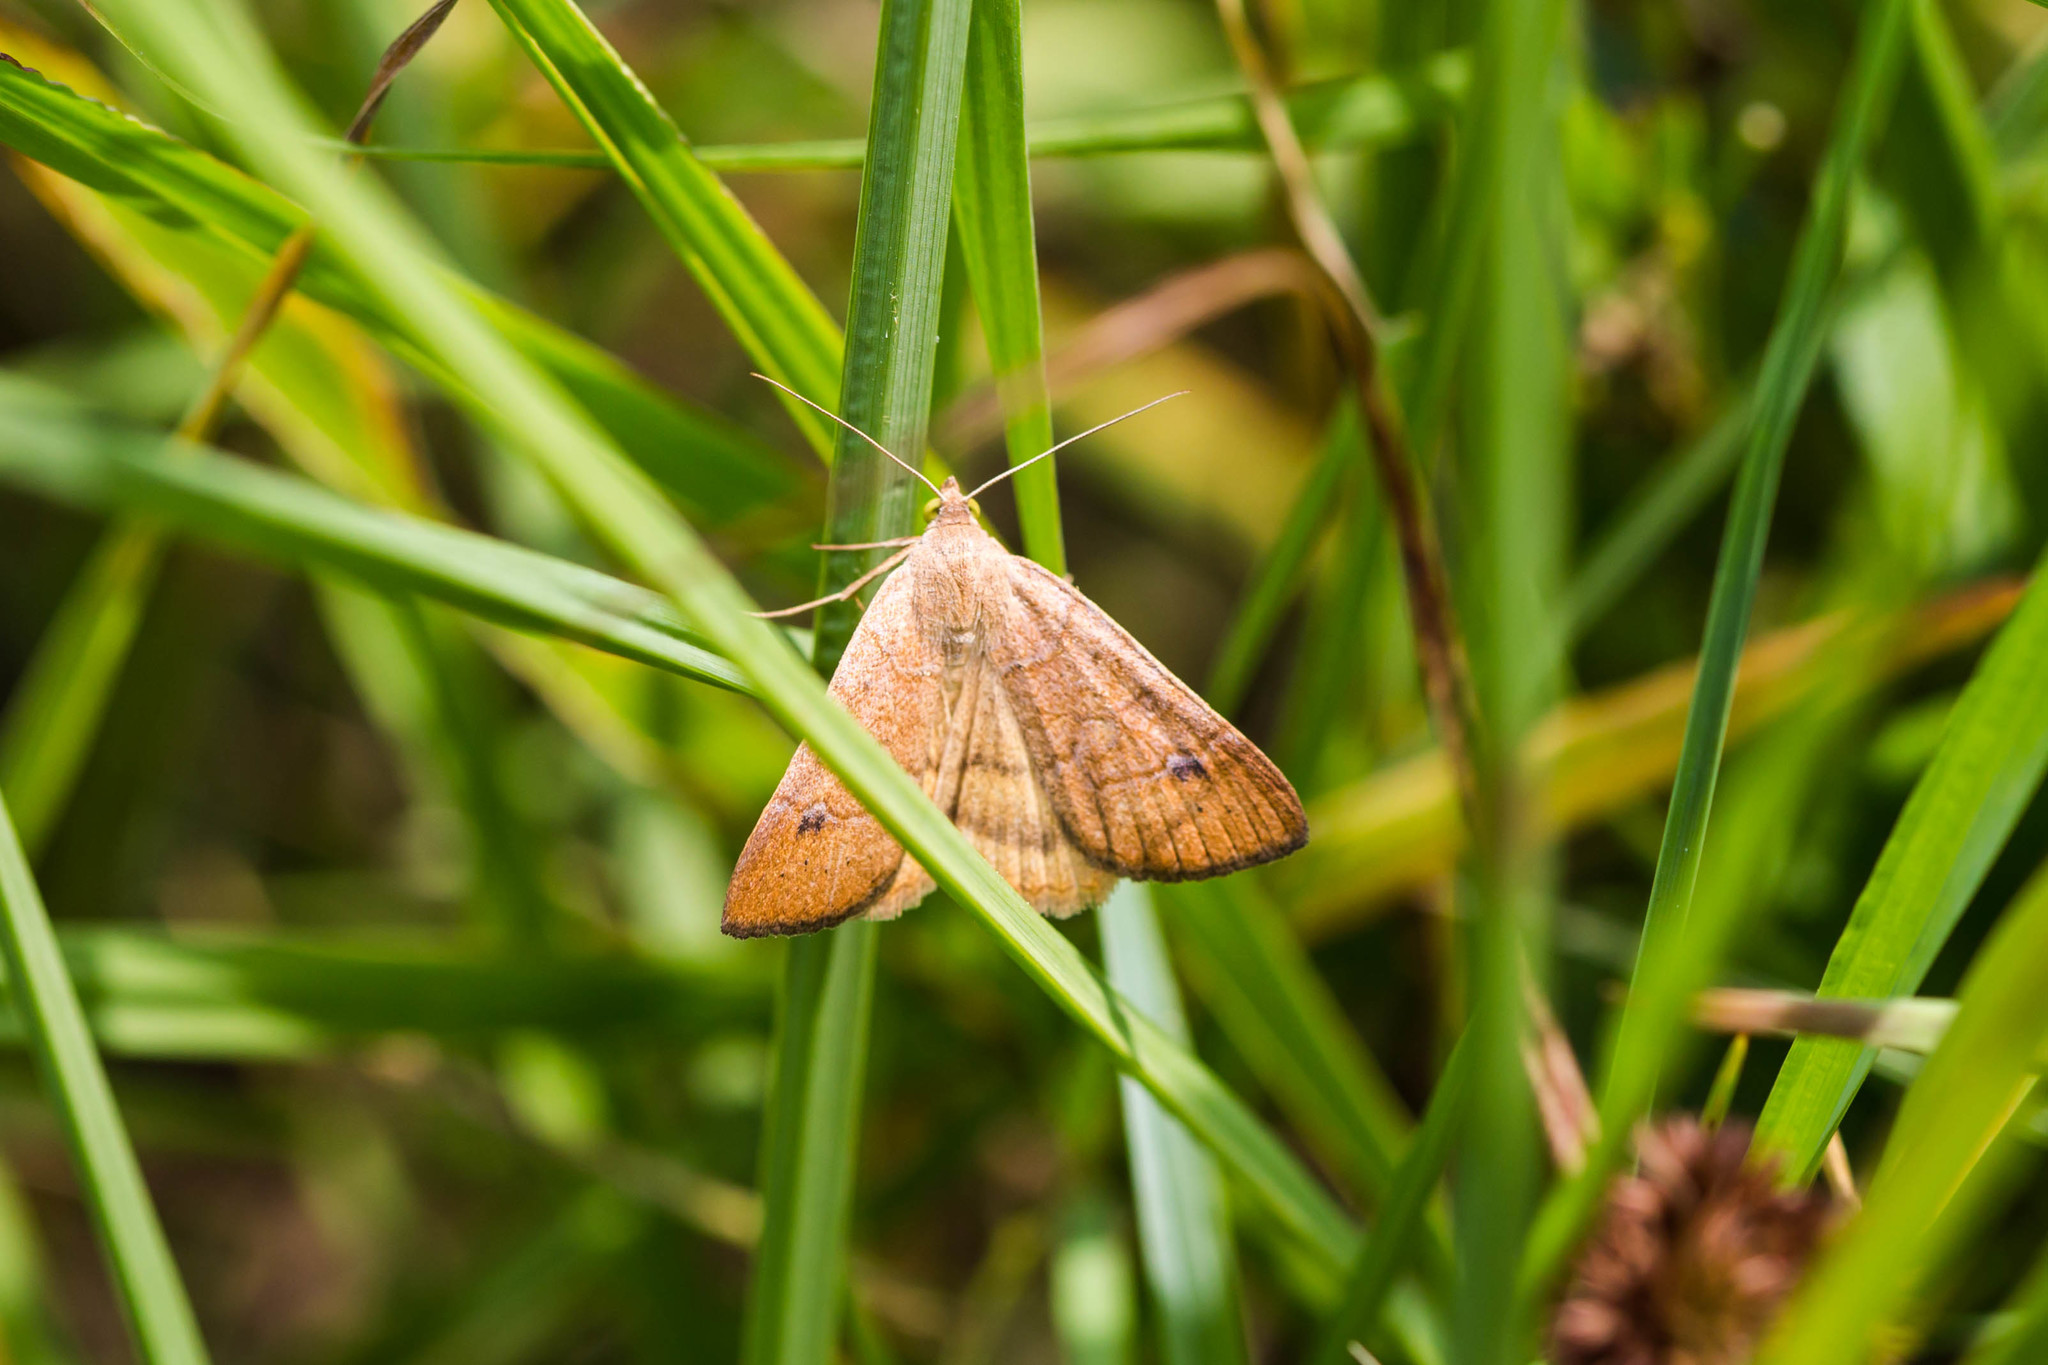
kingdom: Animalia
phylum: Arthropoda
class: Insecta
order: Lepidoptera
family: Erebidae
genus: Caenurgia
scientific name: Caenurgia chloropha
